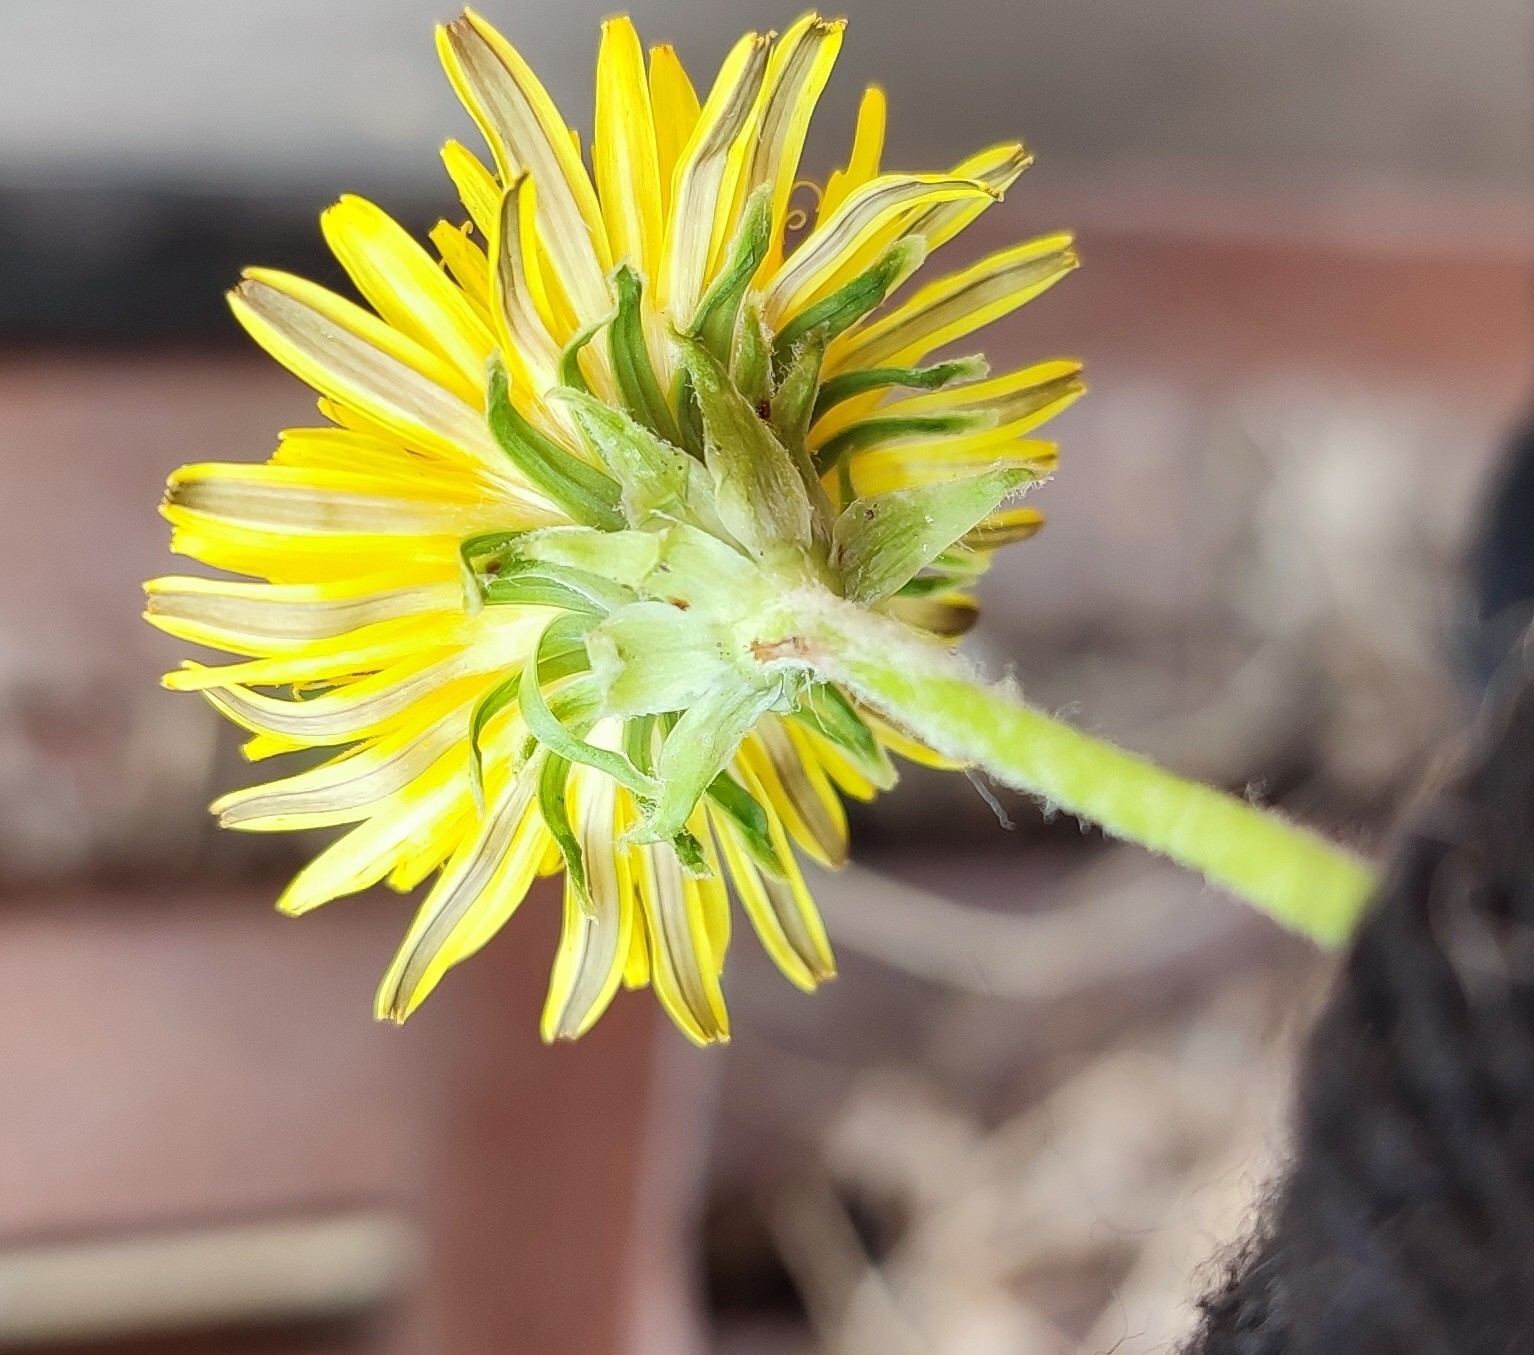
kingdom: Plantae
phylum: Tracheophyta
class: Magnoliopsida
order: Asterales
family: Asteraceae
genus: Taraxacum
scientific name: Taraxacum scariosum
